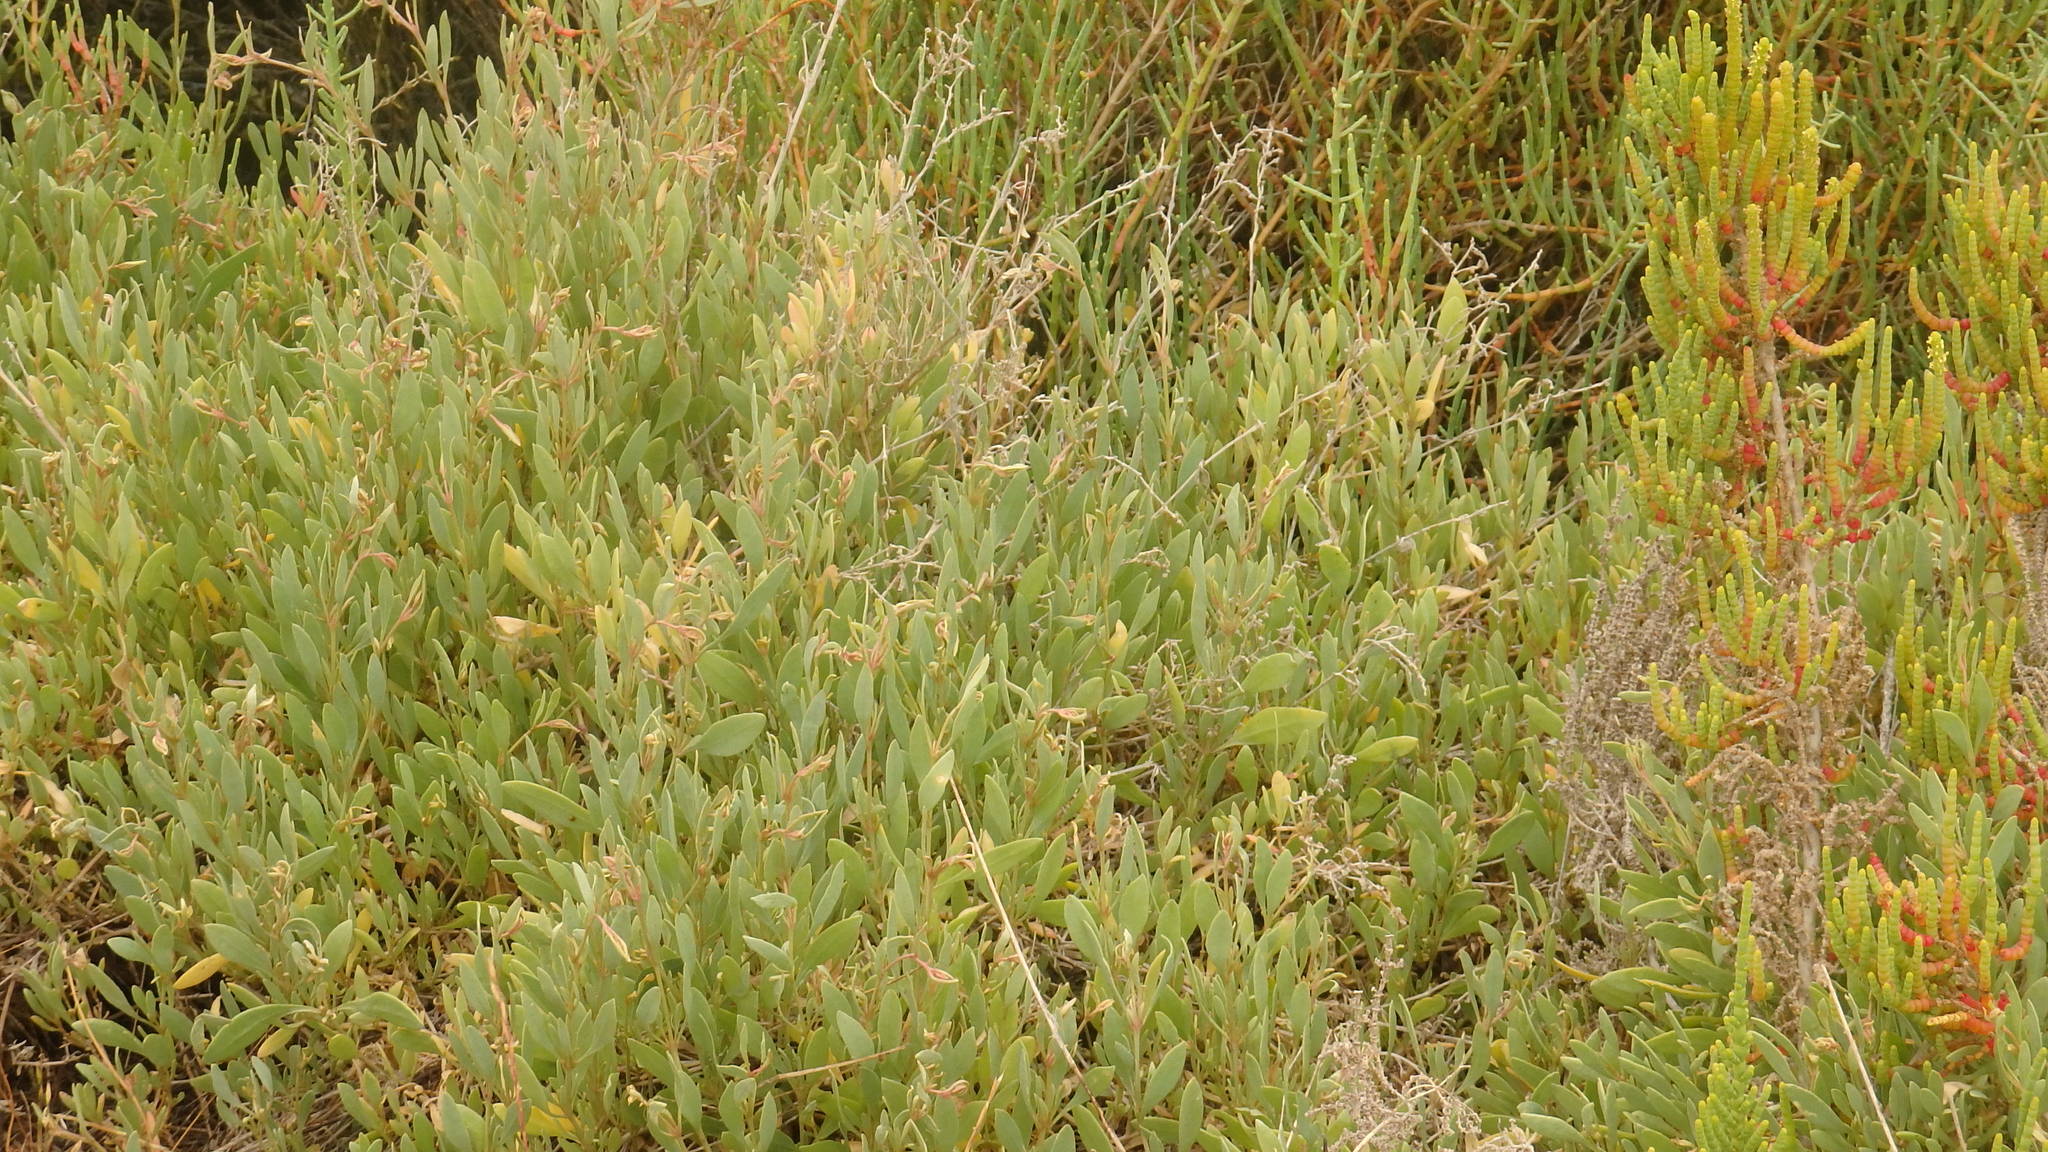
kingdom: Plantae
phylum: Tracheophyta
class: Magnoliopsida
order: Caryophyllales
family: Amaranthaceae
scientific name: Amaranthaceae
